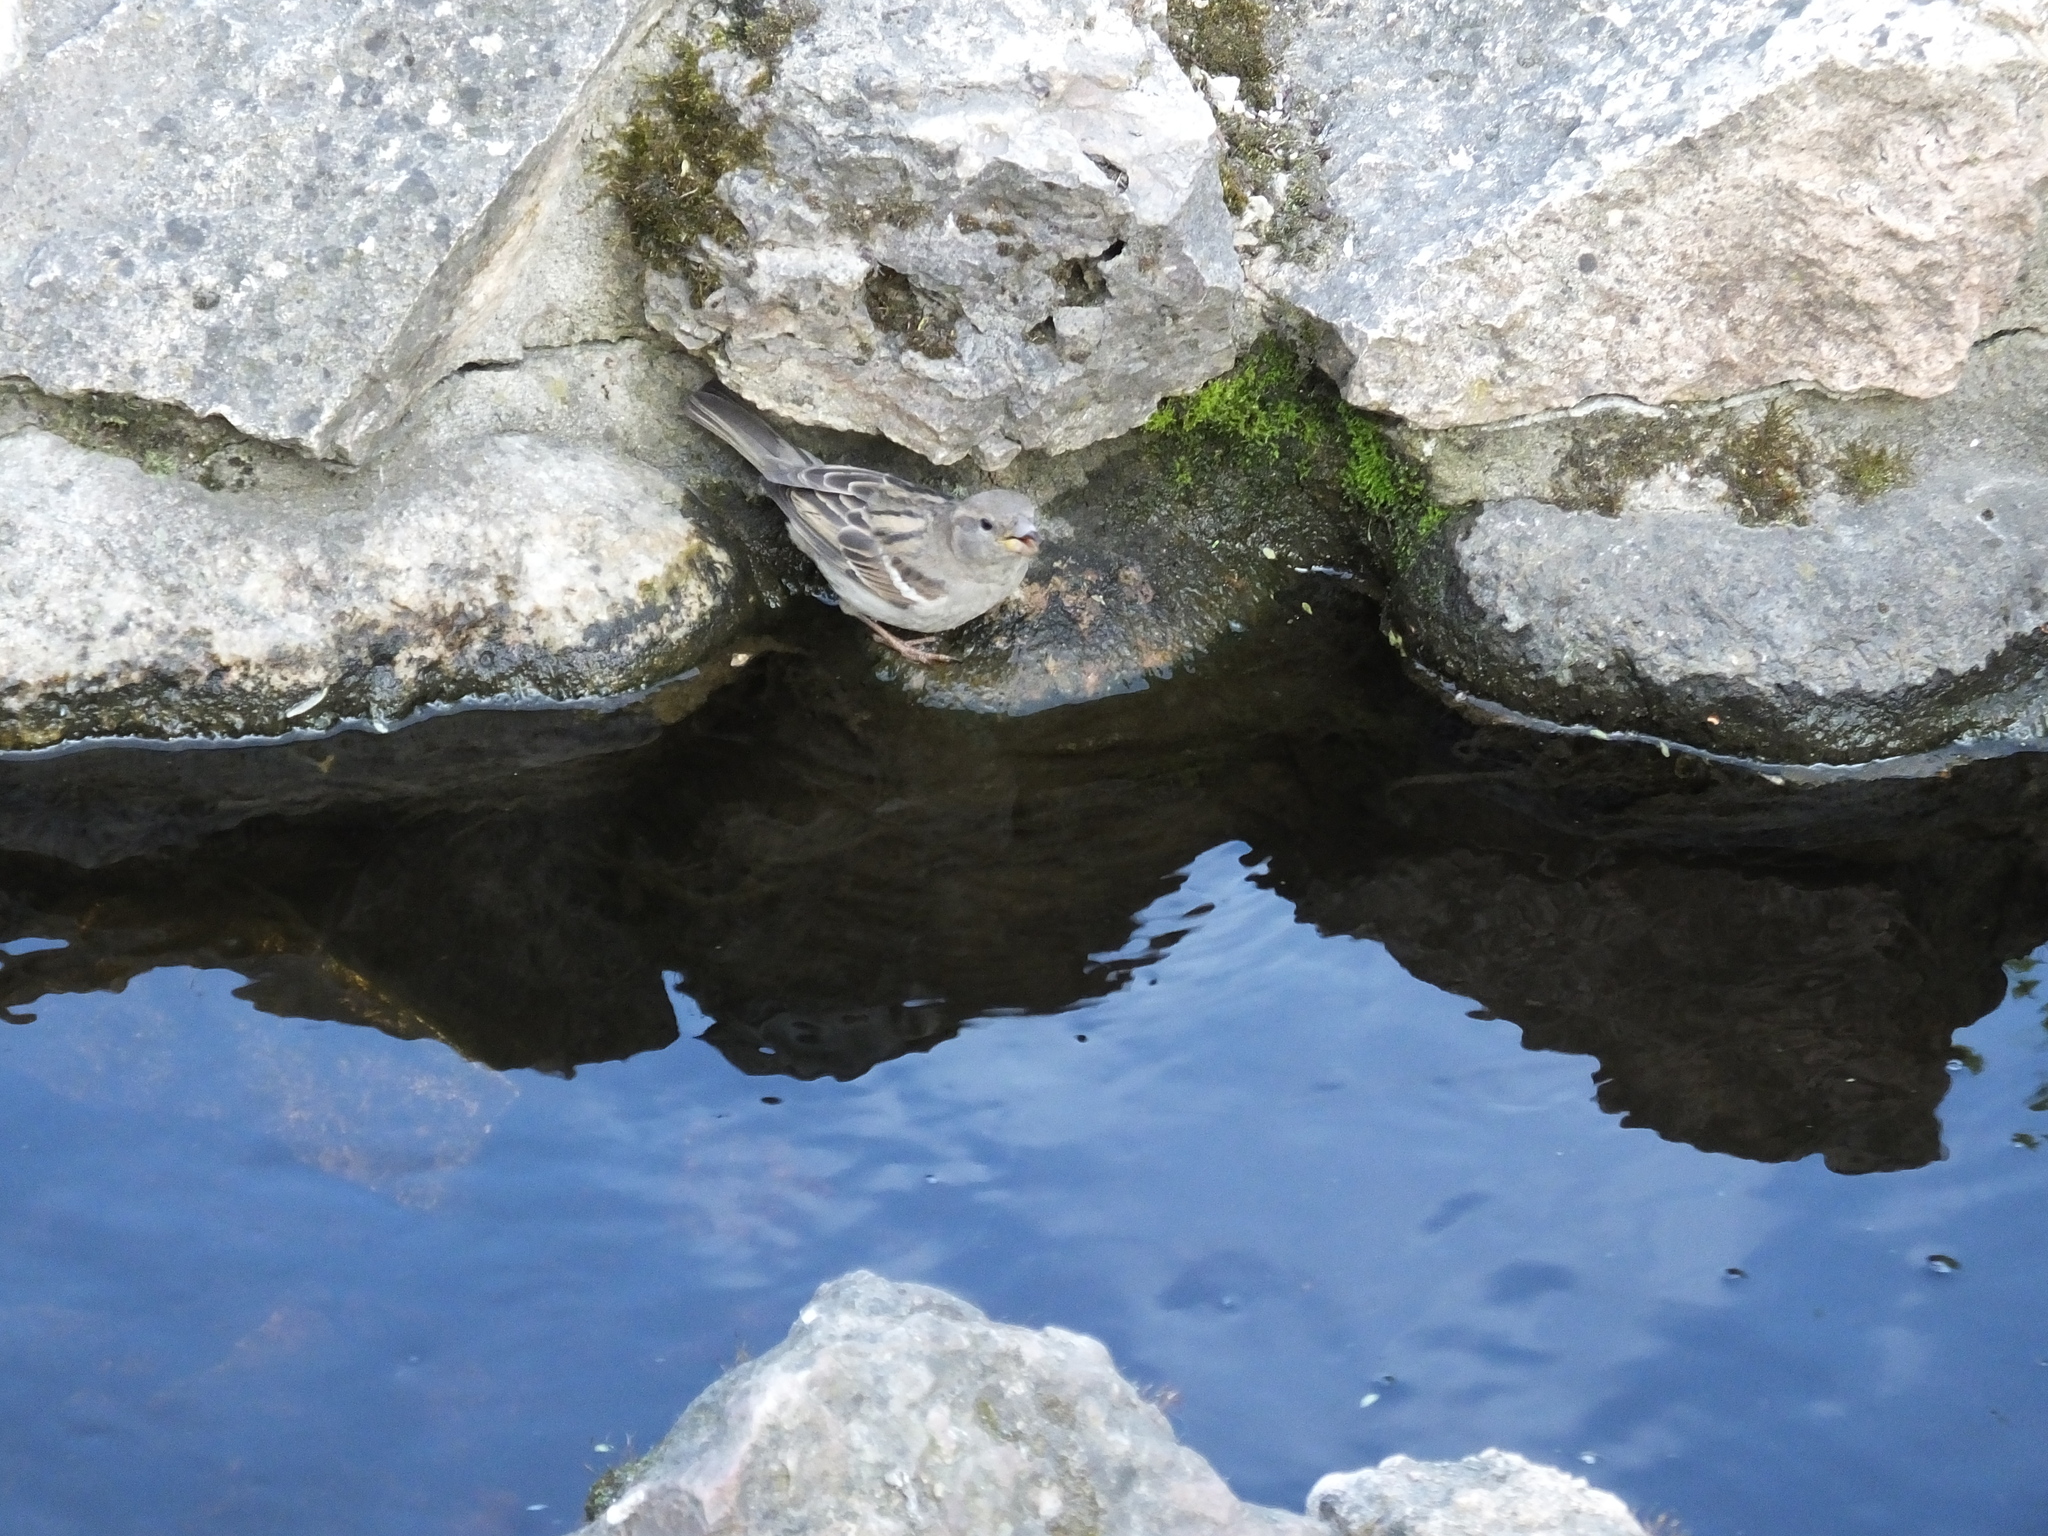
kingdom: Animalia
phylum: Chordata
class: Aves
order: Passeriformes
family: Passeridae
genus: Passer
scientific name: Passer domesticus
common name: House sparrow
